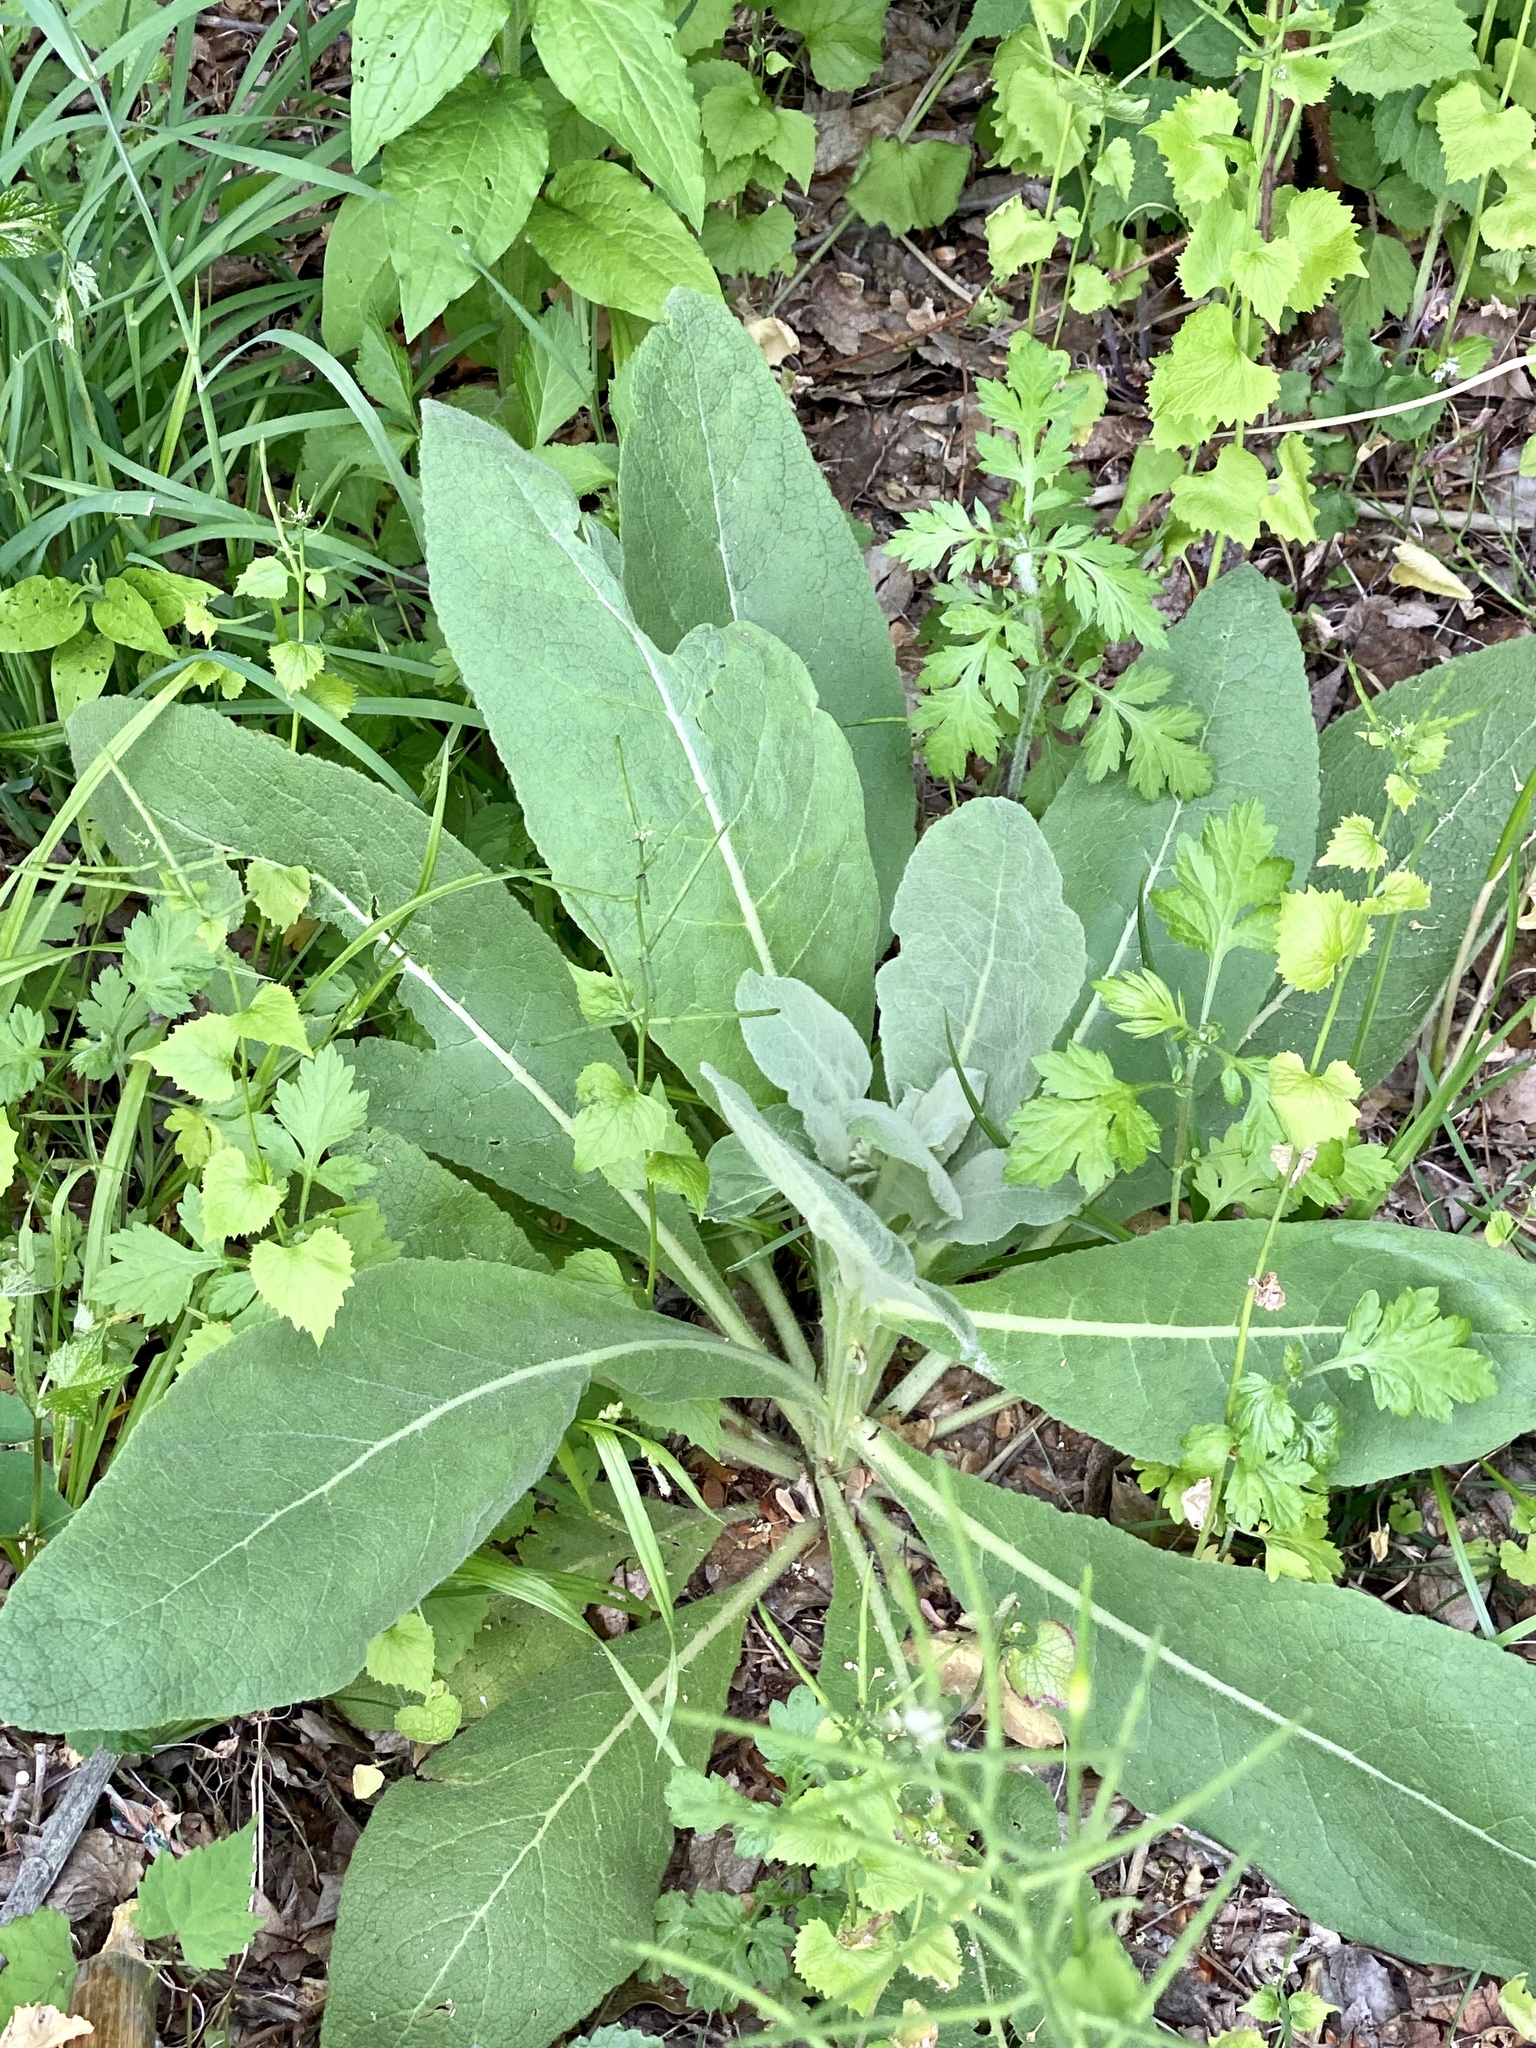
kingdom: Plantae
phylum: Tracheophyta
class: Magnoliopsida
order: Lamiales
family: Scrophulariaceae
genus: Verbascum
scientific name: Verbascum thapsus
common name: Common mullein
